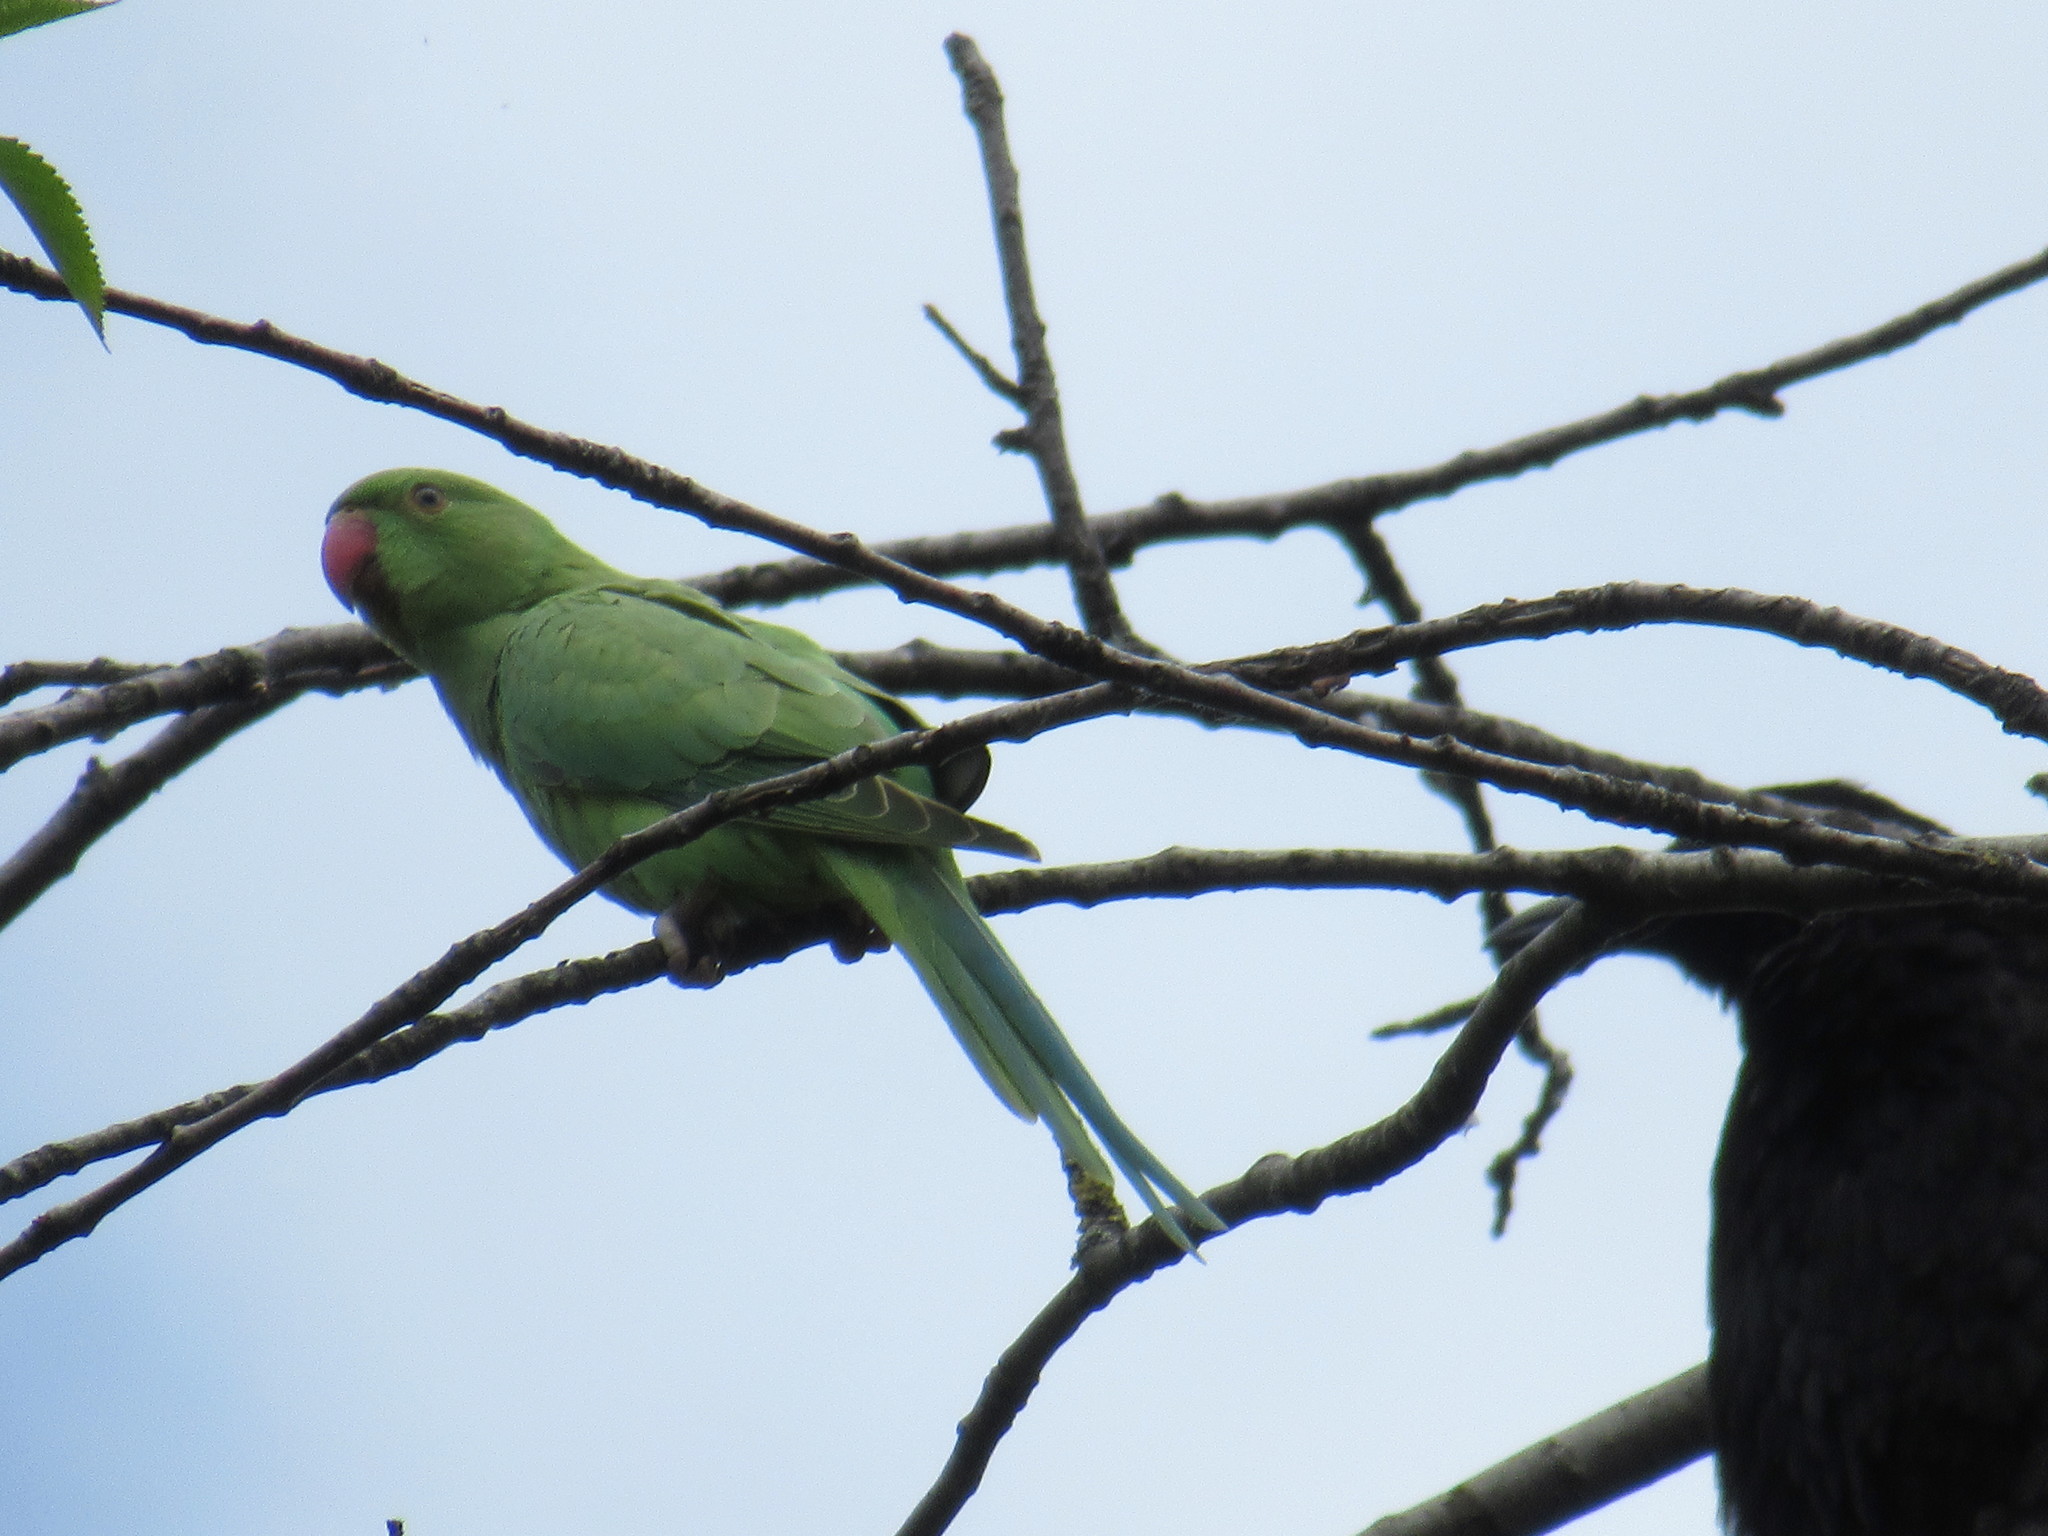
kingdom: Animalia
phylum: Chordata
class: Aves
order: Psittaciformes
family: Psittacidae
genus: Psittacula
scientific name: Psittacula krameri
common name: Rose-ringed parakeet
